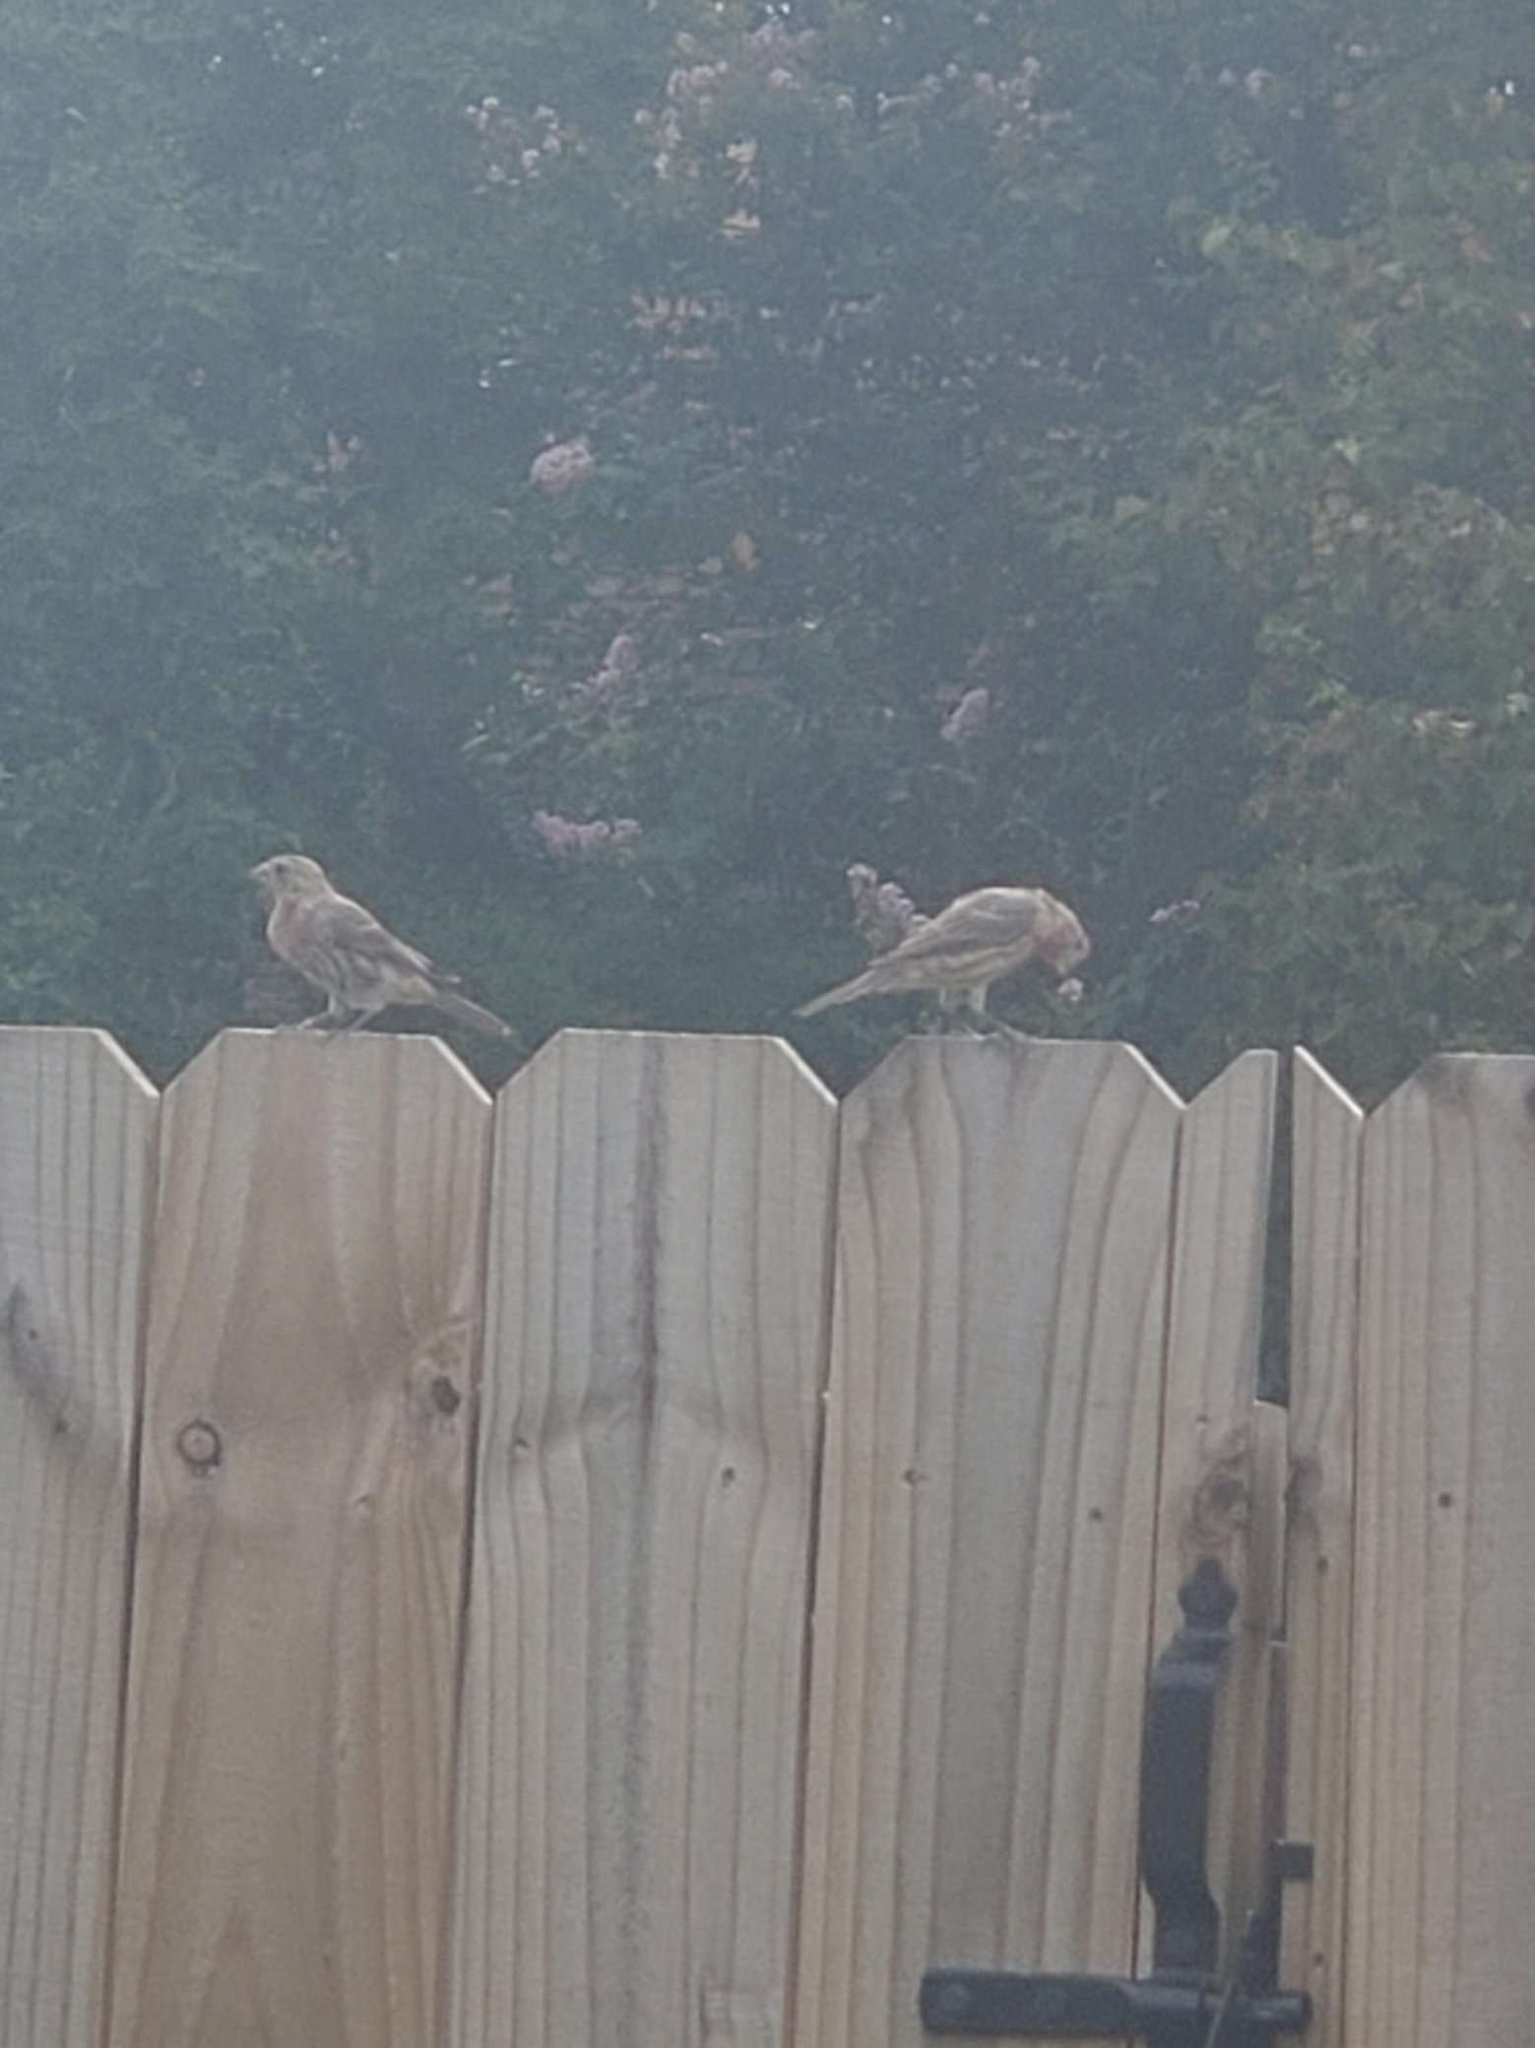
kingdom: Animalia
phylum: Chordata
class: Aves
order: Passeriformes
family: Fringillidae
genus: Haemorhous
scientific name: Haemorhous mexicanus
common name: House finch
